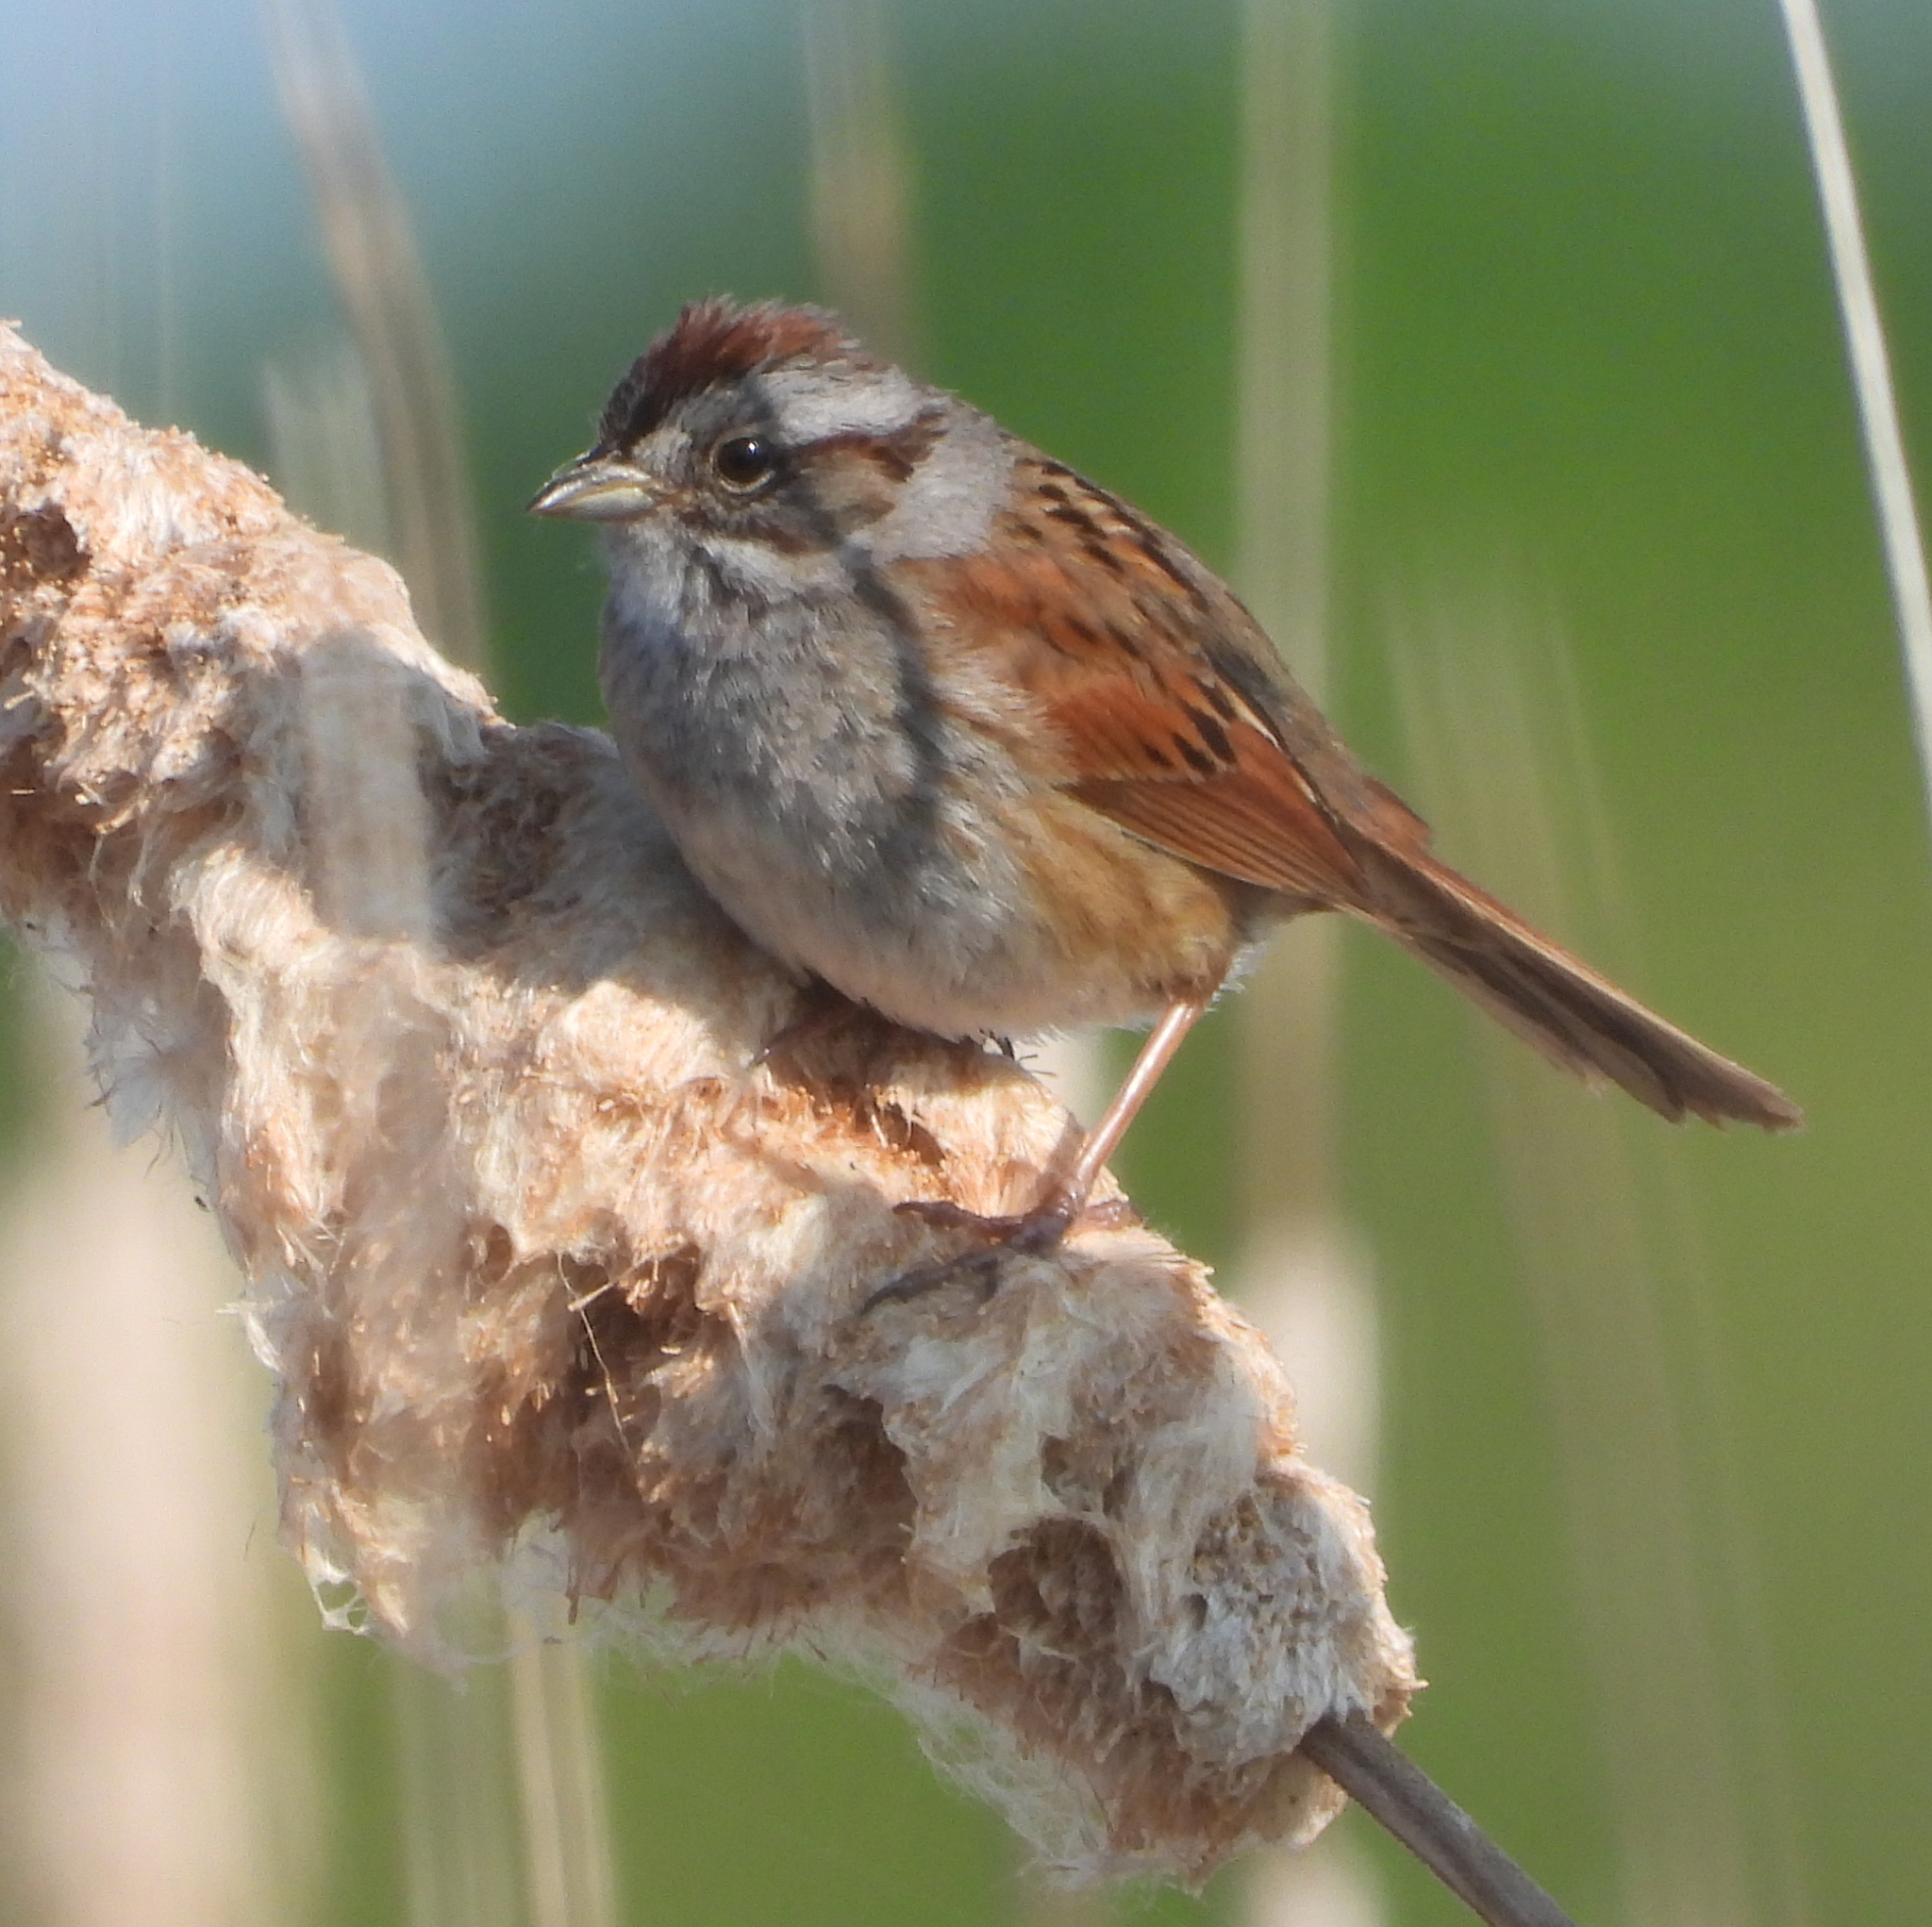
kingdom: Animalia
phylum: Chordata
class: Aves
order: Passeriformes
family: Passerellidae
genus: Melospiza
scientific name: Melospiza georgiana
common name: Swamp sparrow
